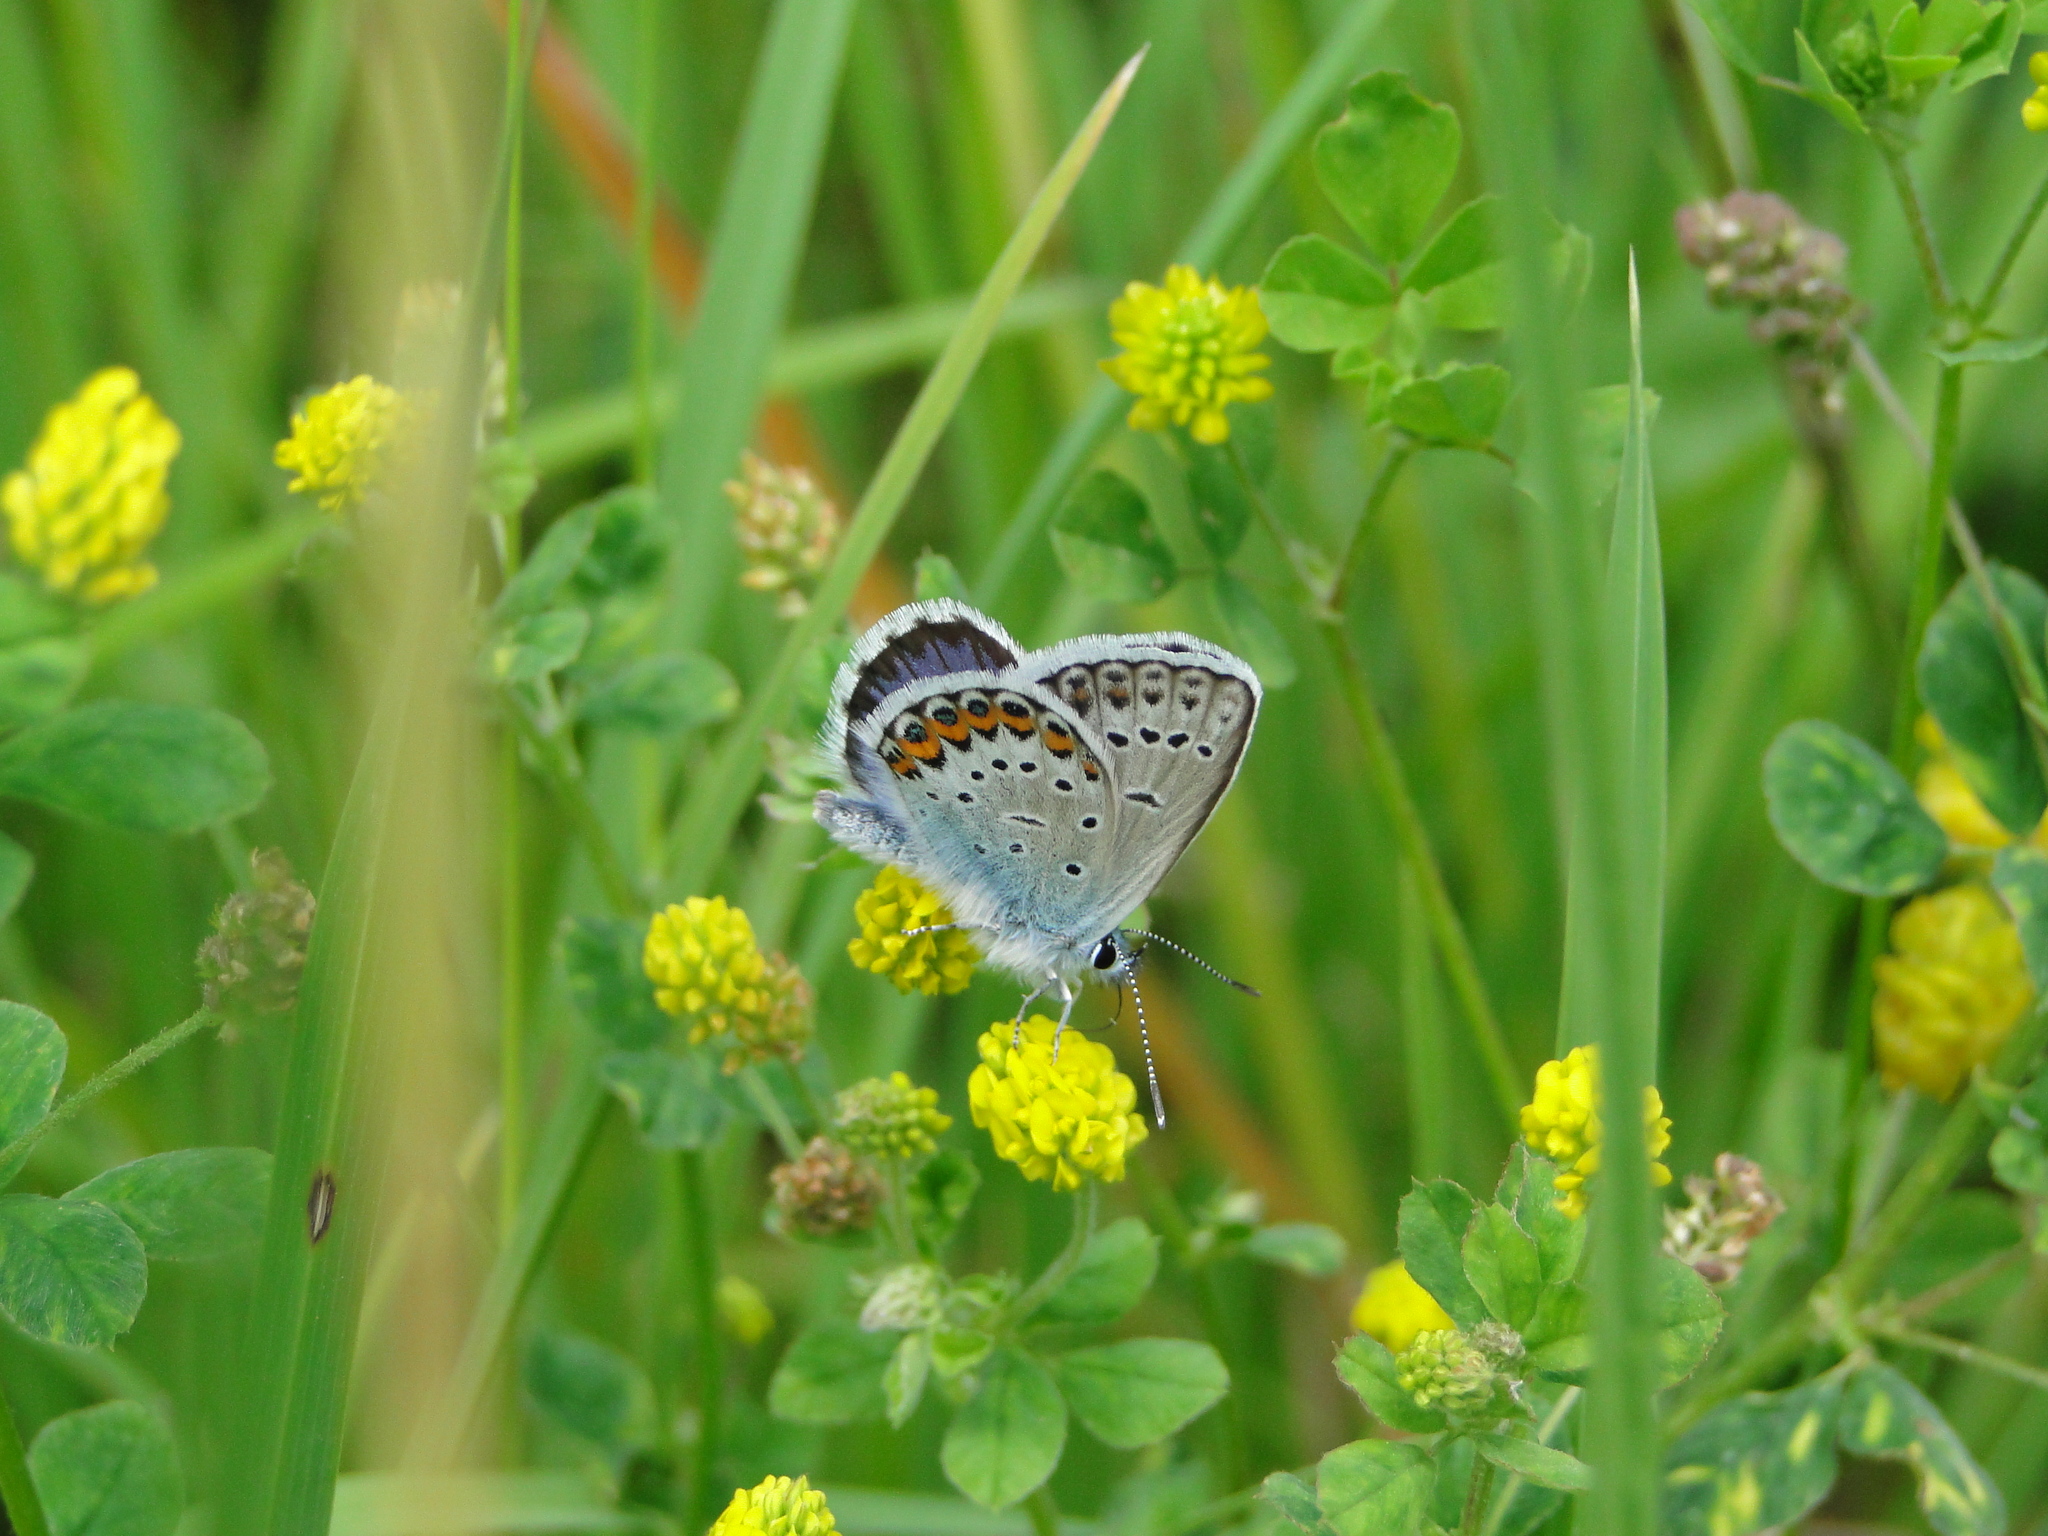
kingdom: Animalia
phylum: Arthropoda
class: Insecta
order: Lepidoptera
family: Lycaenidae
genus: Lycaeides
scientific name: Lycaeides idas
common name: Northern blue
